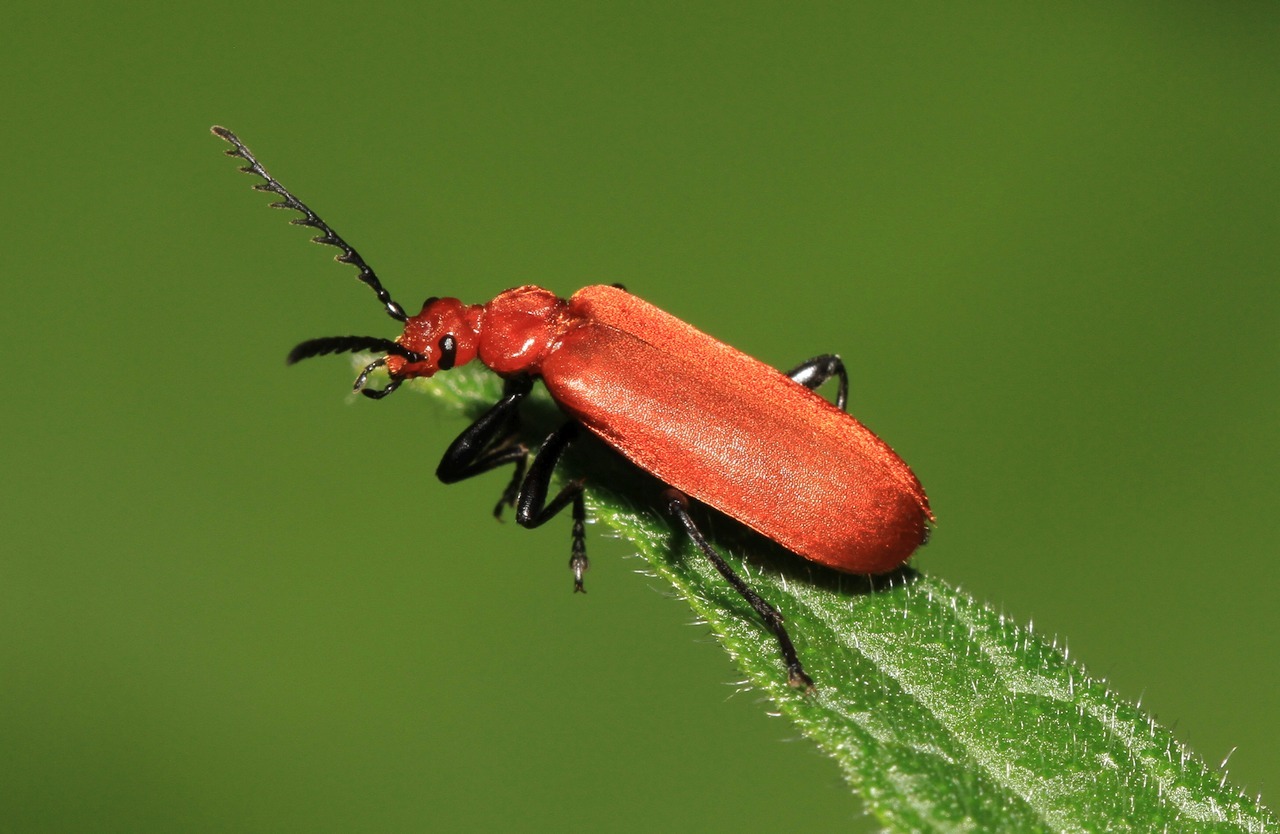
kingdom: Animalia
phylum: Arthropoda
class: Insecta
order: Coleoptera
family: Pyrochroidae
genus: Pyrochroa
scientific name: Pyrochroa serraticornis
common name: Red-headed cardinal beetle
